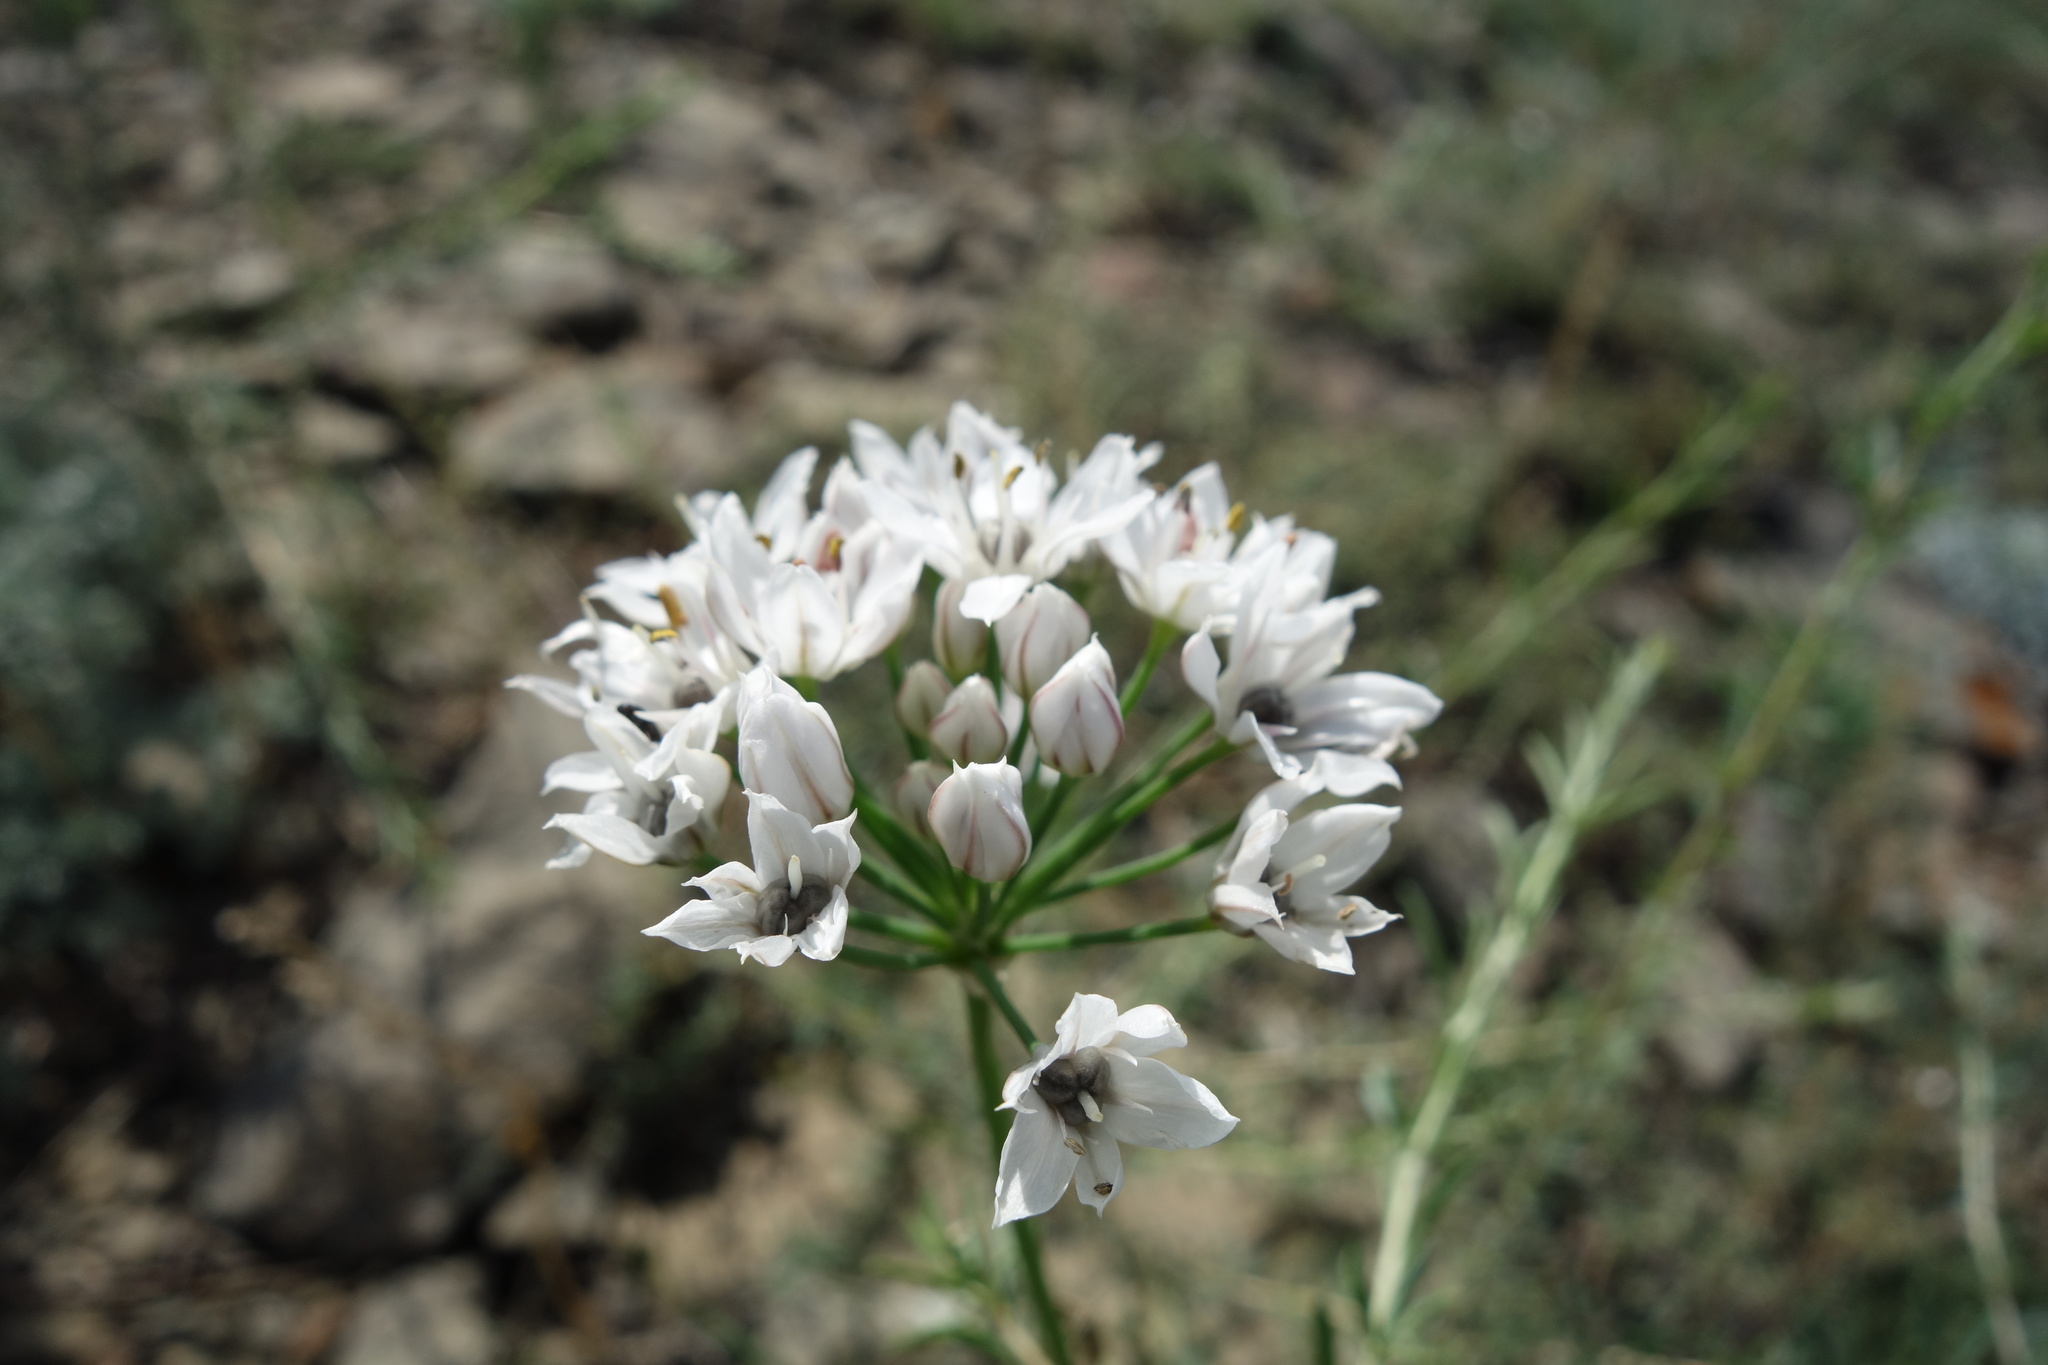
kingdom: Plantae
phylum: Tracheophyta
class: Liliopsida
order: Asparagales
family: Amaryllidaceae
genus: Allium
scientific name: Allium ramosum
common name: Fragrant garlic
